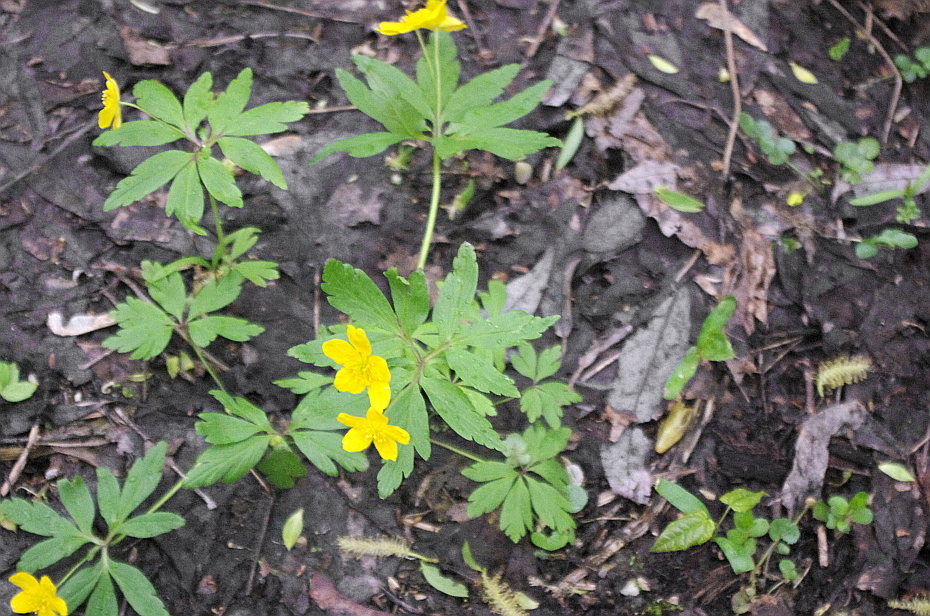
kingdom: Plantae
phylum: Tracheophyta
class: Magnoliopsida
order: Ranunculales
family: Ranunculaceae
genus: Anemone
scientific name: Anemone ranunculoides
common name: Yellow anemone
